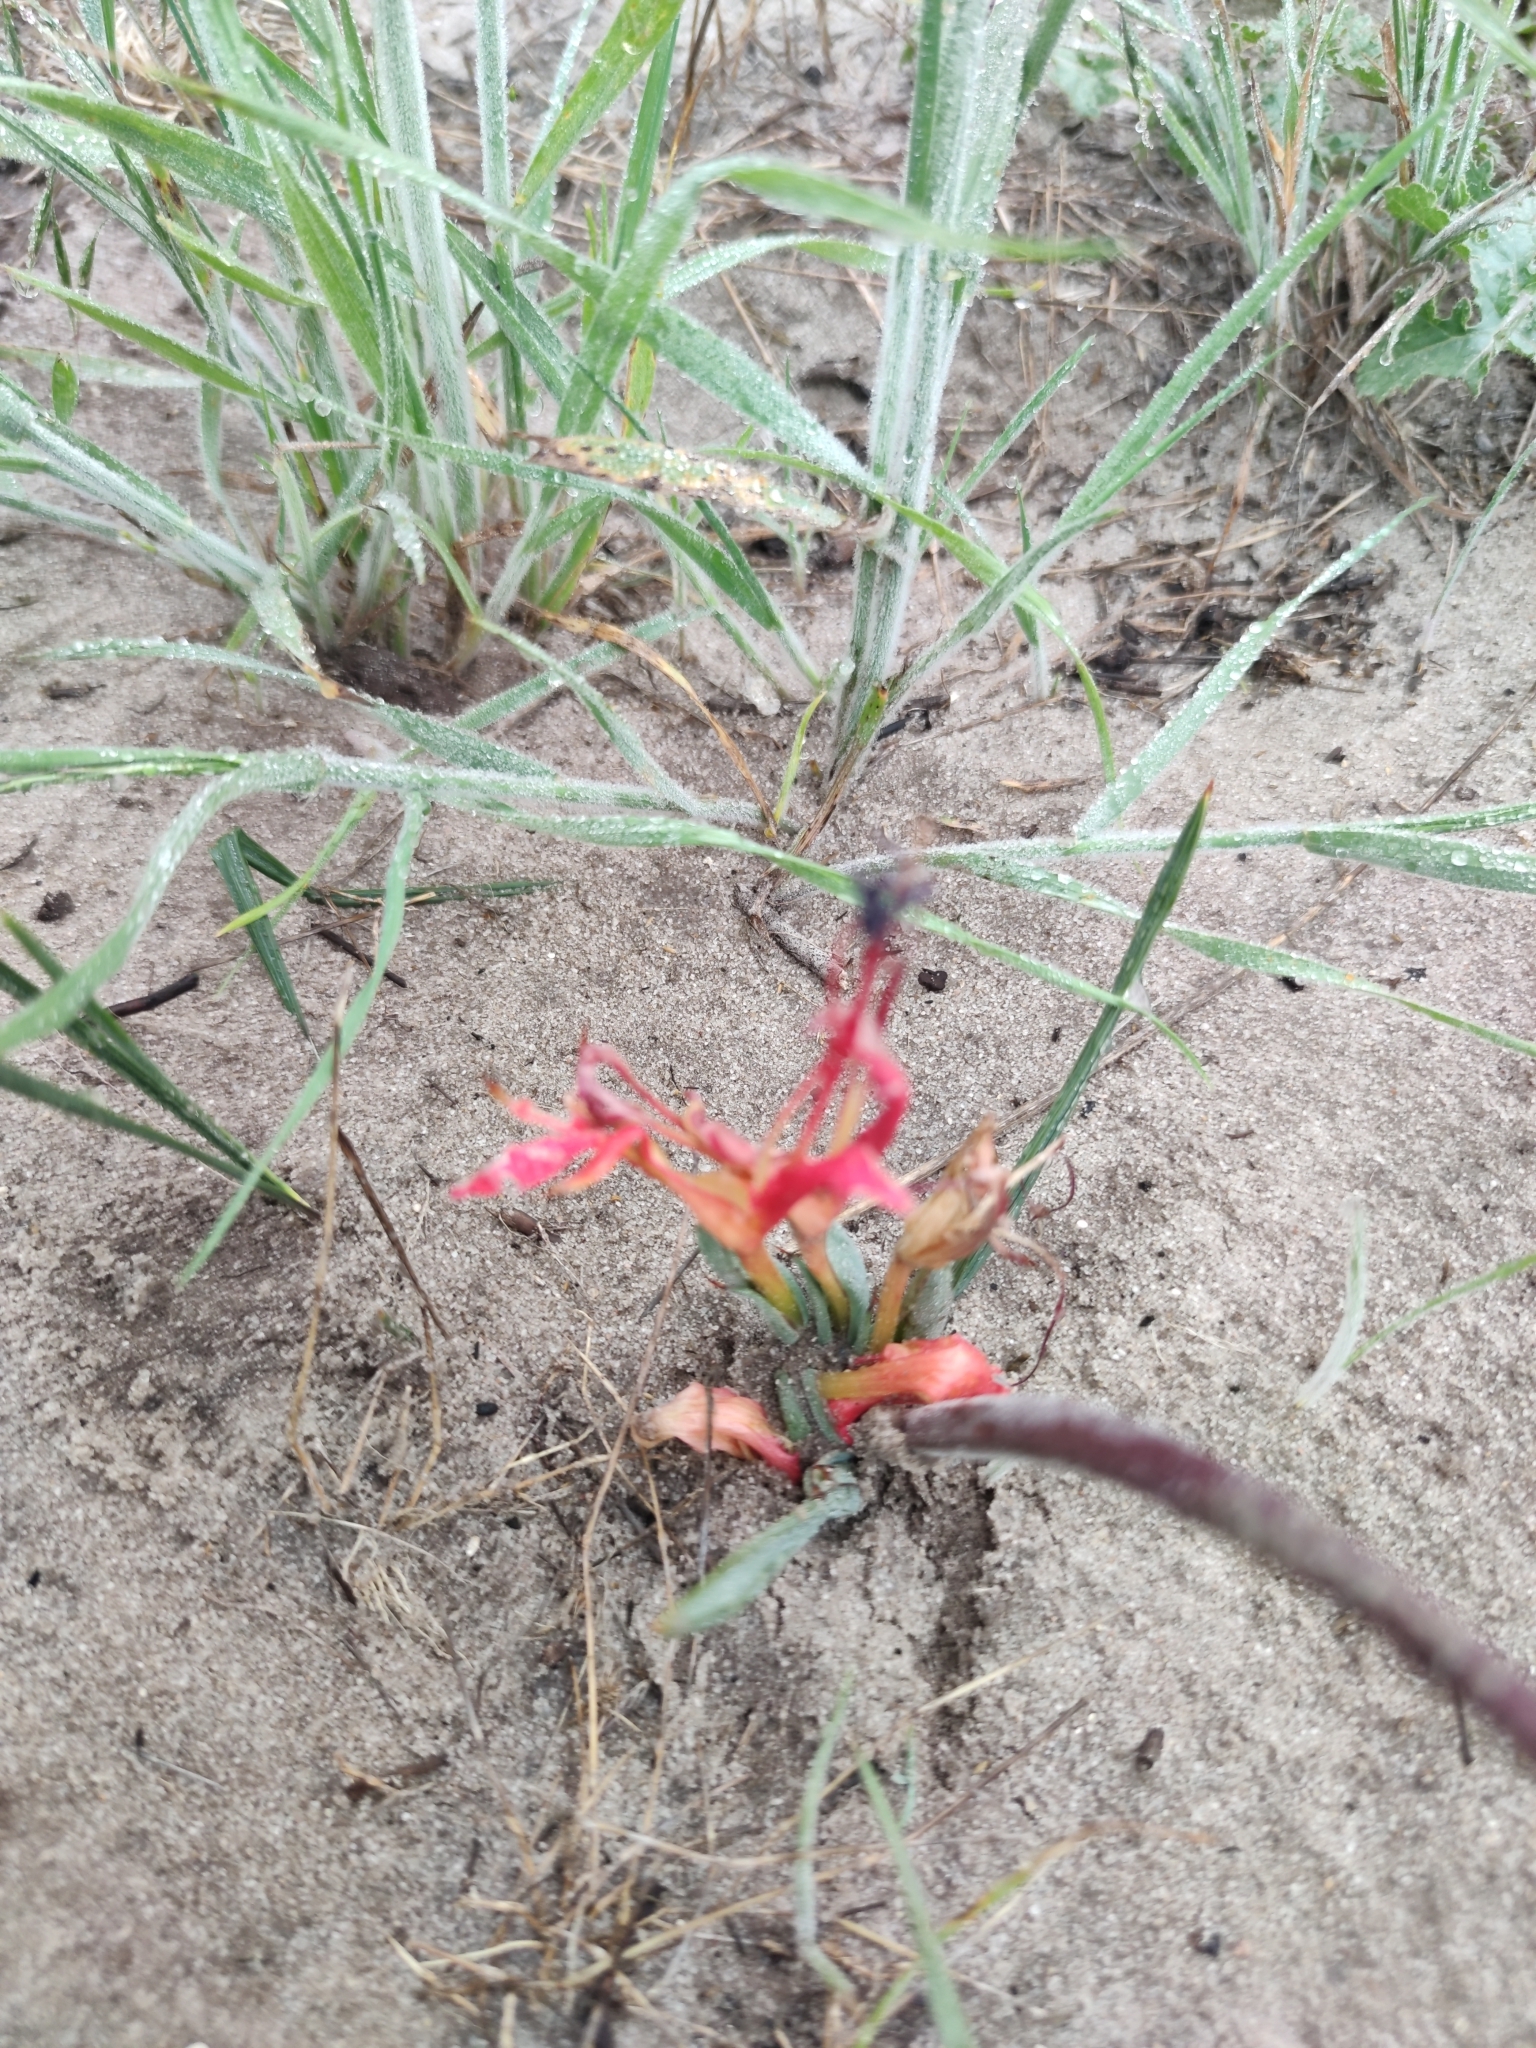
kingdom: Plantae
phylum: Tracheophyta
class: Liliopsida
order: Asparagales
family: Iridaceae
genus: Babiana
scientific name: Babiana ringens
